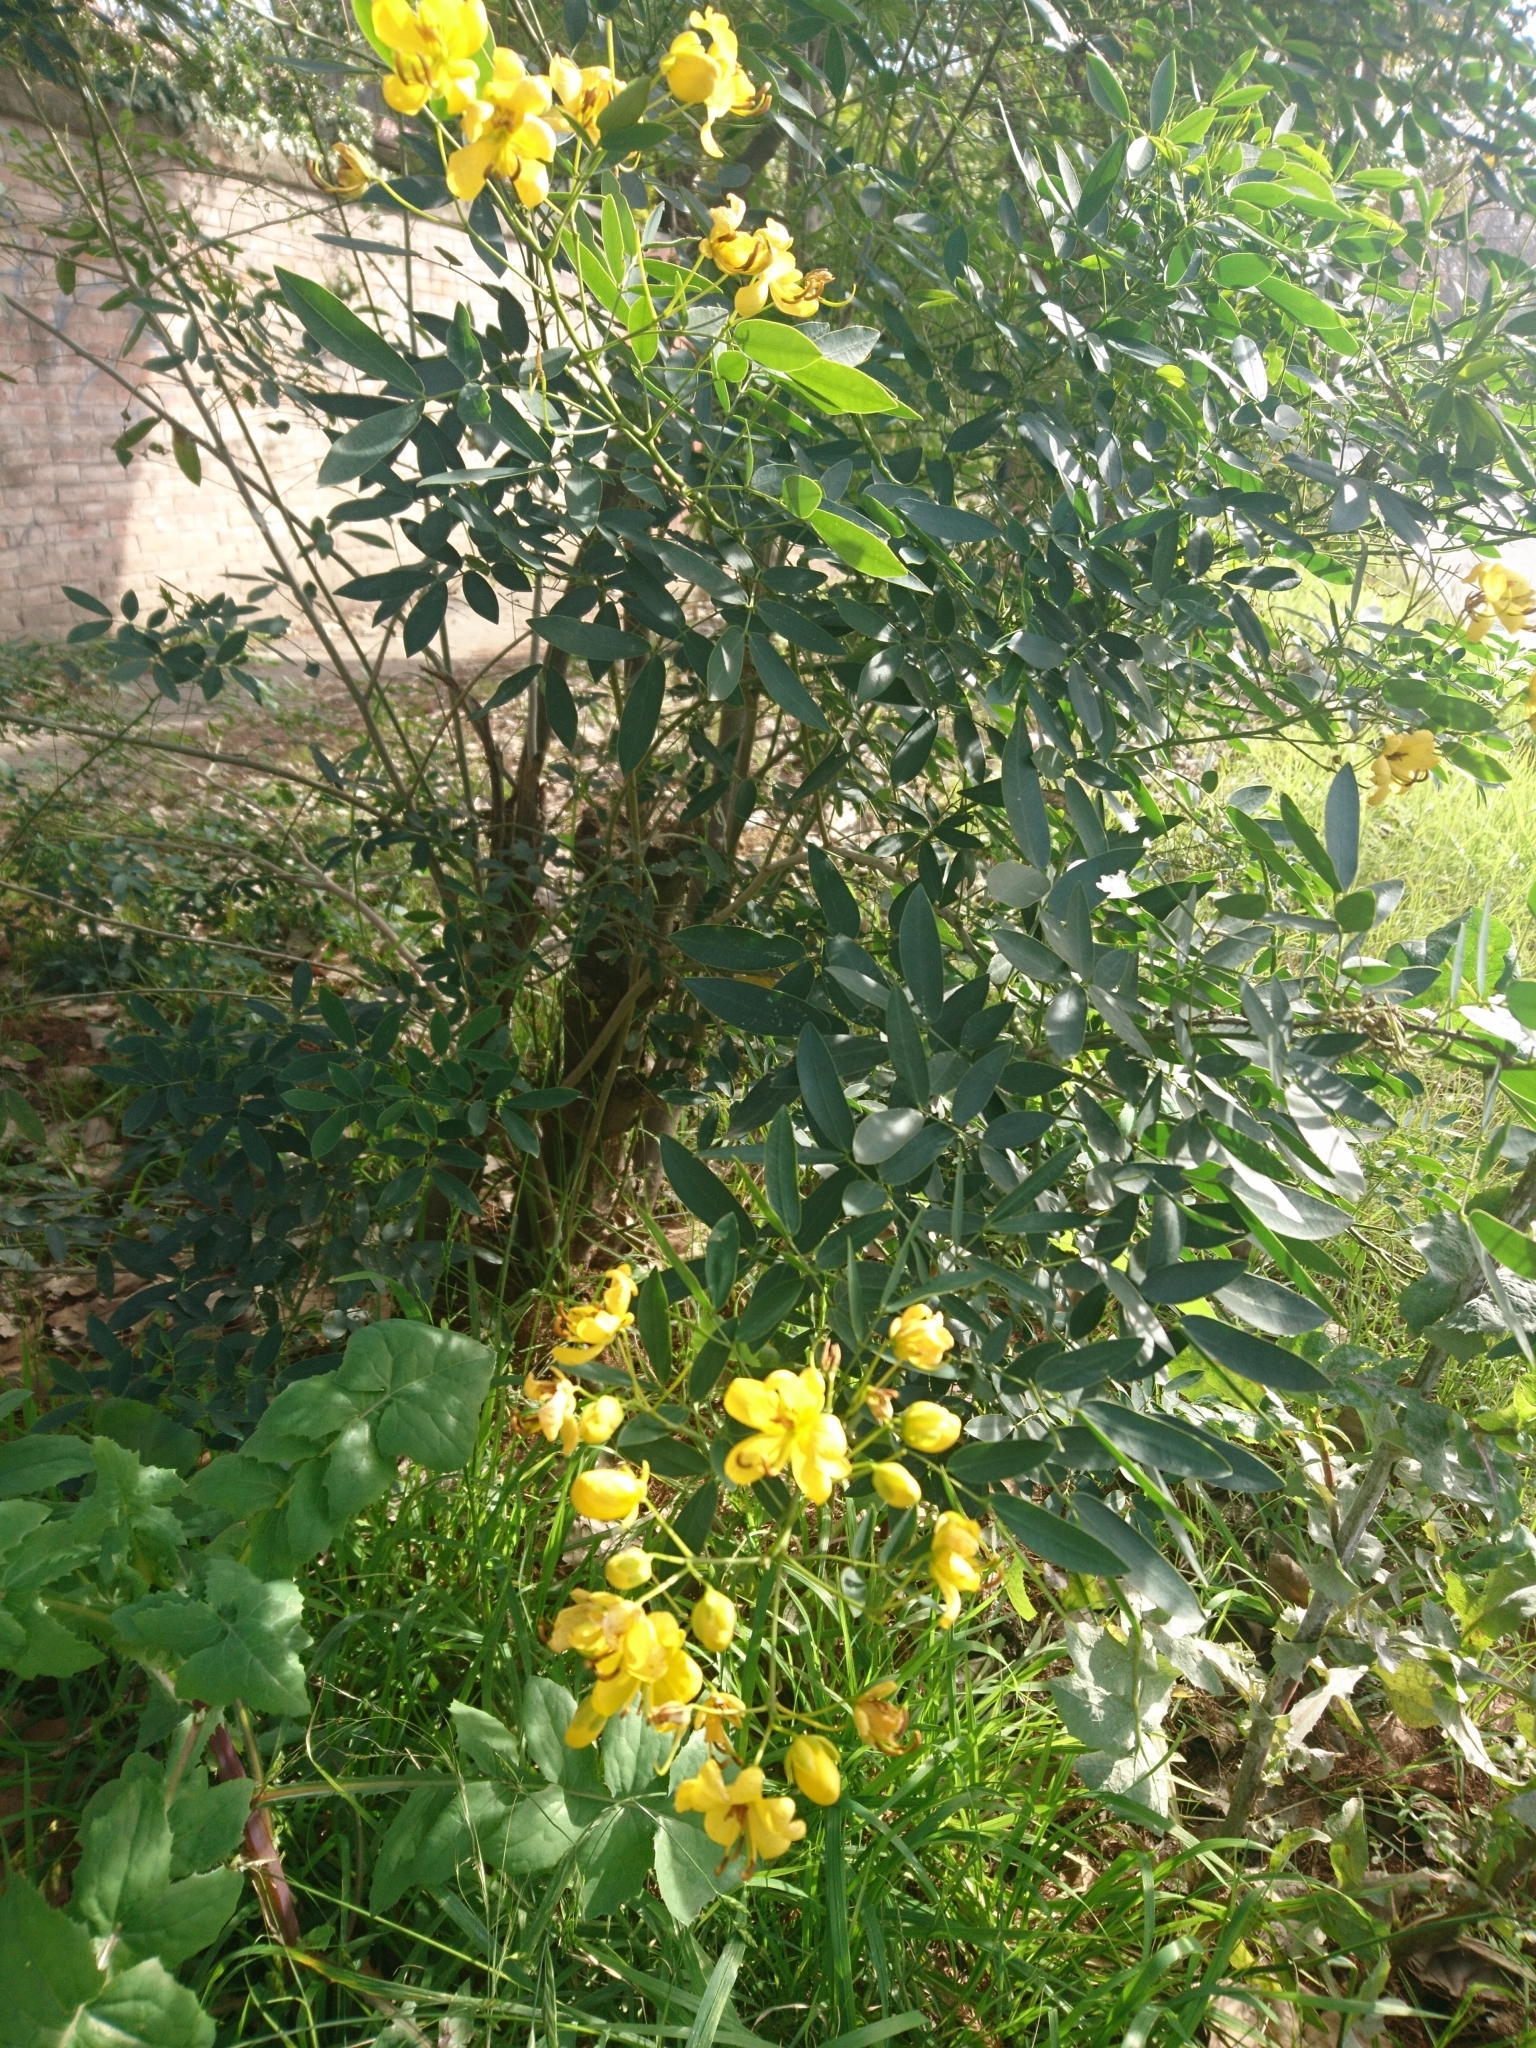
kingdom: Plantae
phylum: Tracheophyta
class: Magnoliopsida
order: Fabales
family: Fabaceae
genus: Senna
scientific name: Senna corymbosa
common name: Argentine senna
